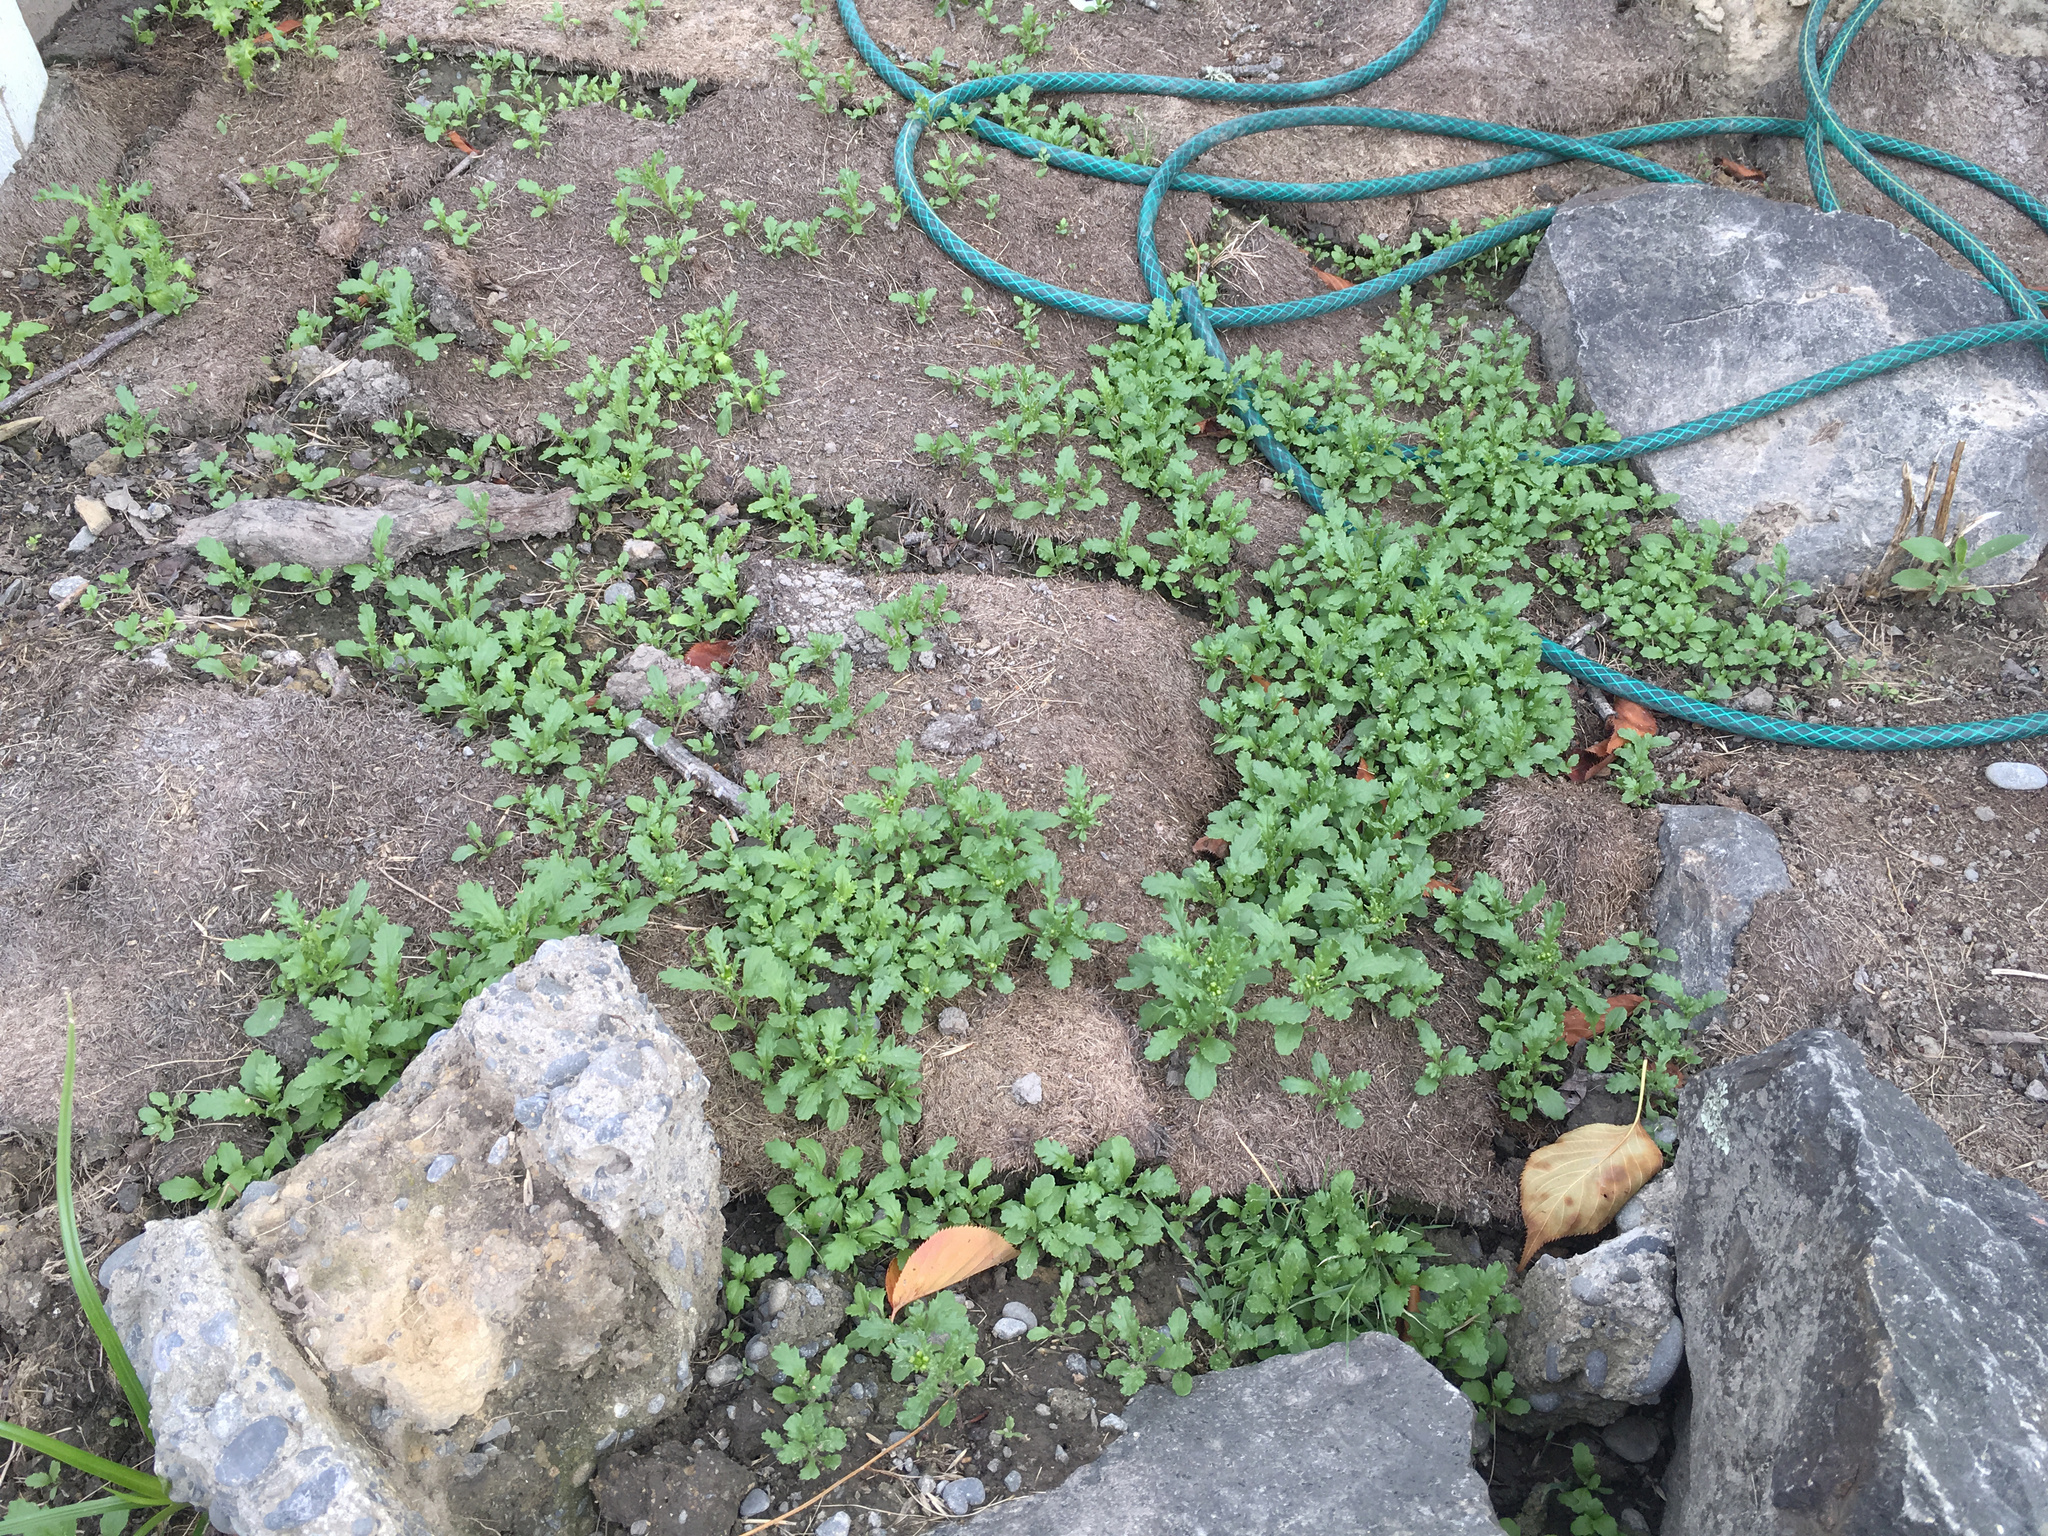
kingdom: Plantae
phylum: Tracheophyta
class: Magnoliopsida
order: Asterales
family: Asteraceae
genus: Senecio
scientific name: Senecio vulgaris
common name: Old-man-in-the-spring
